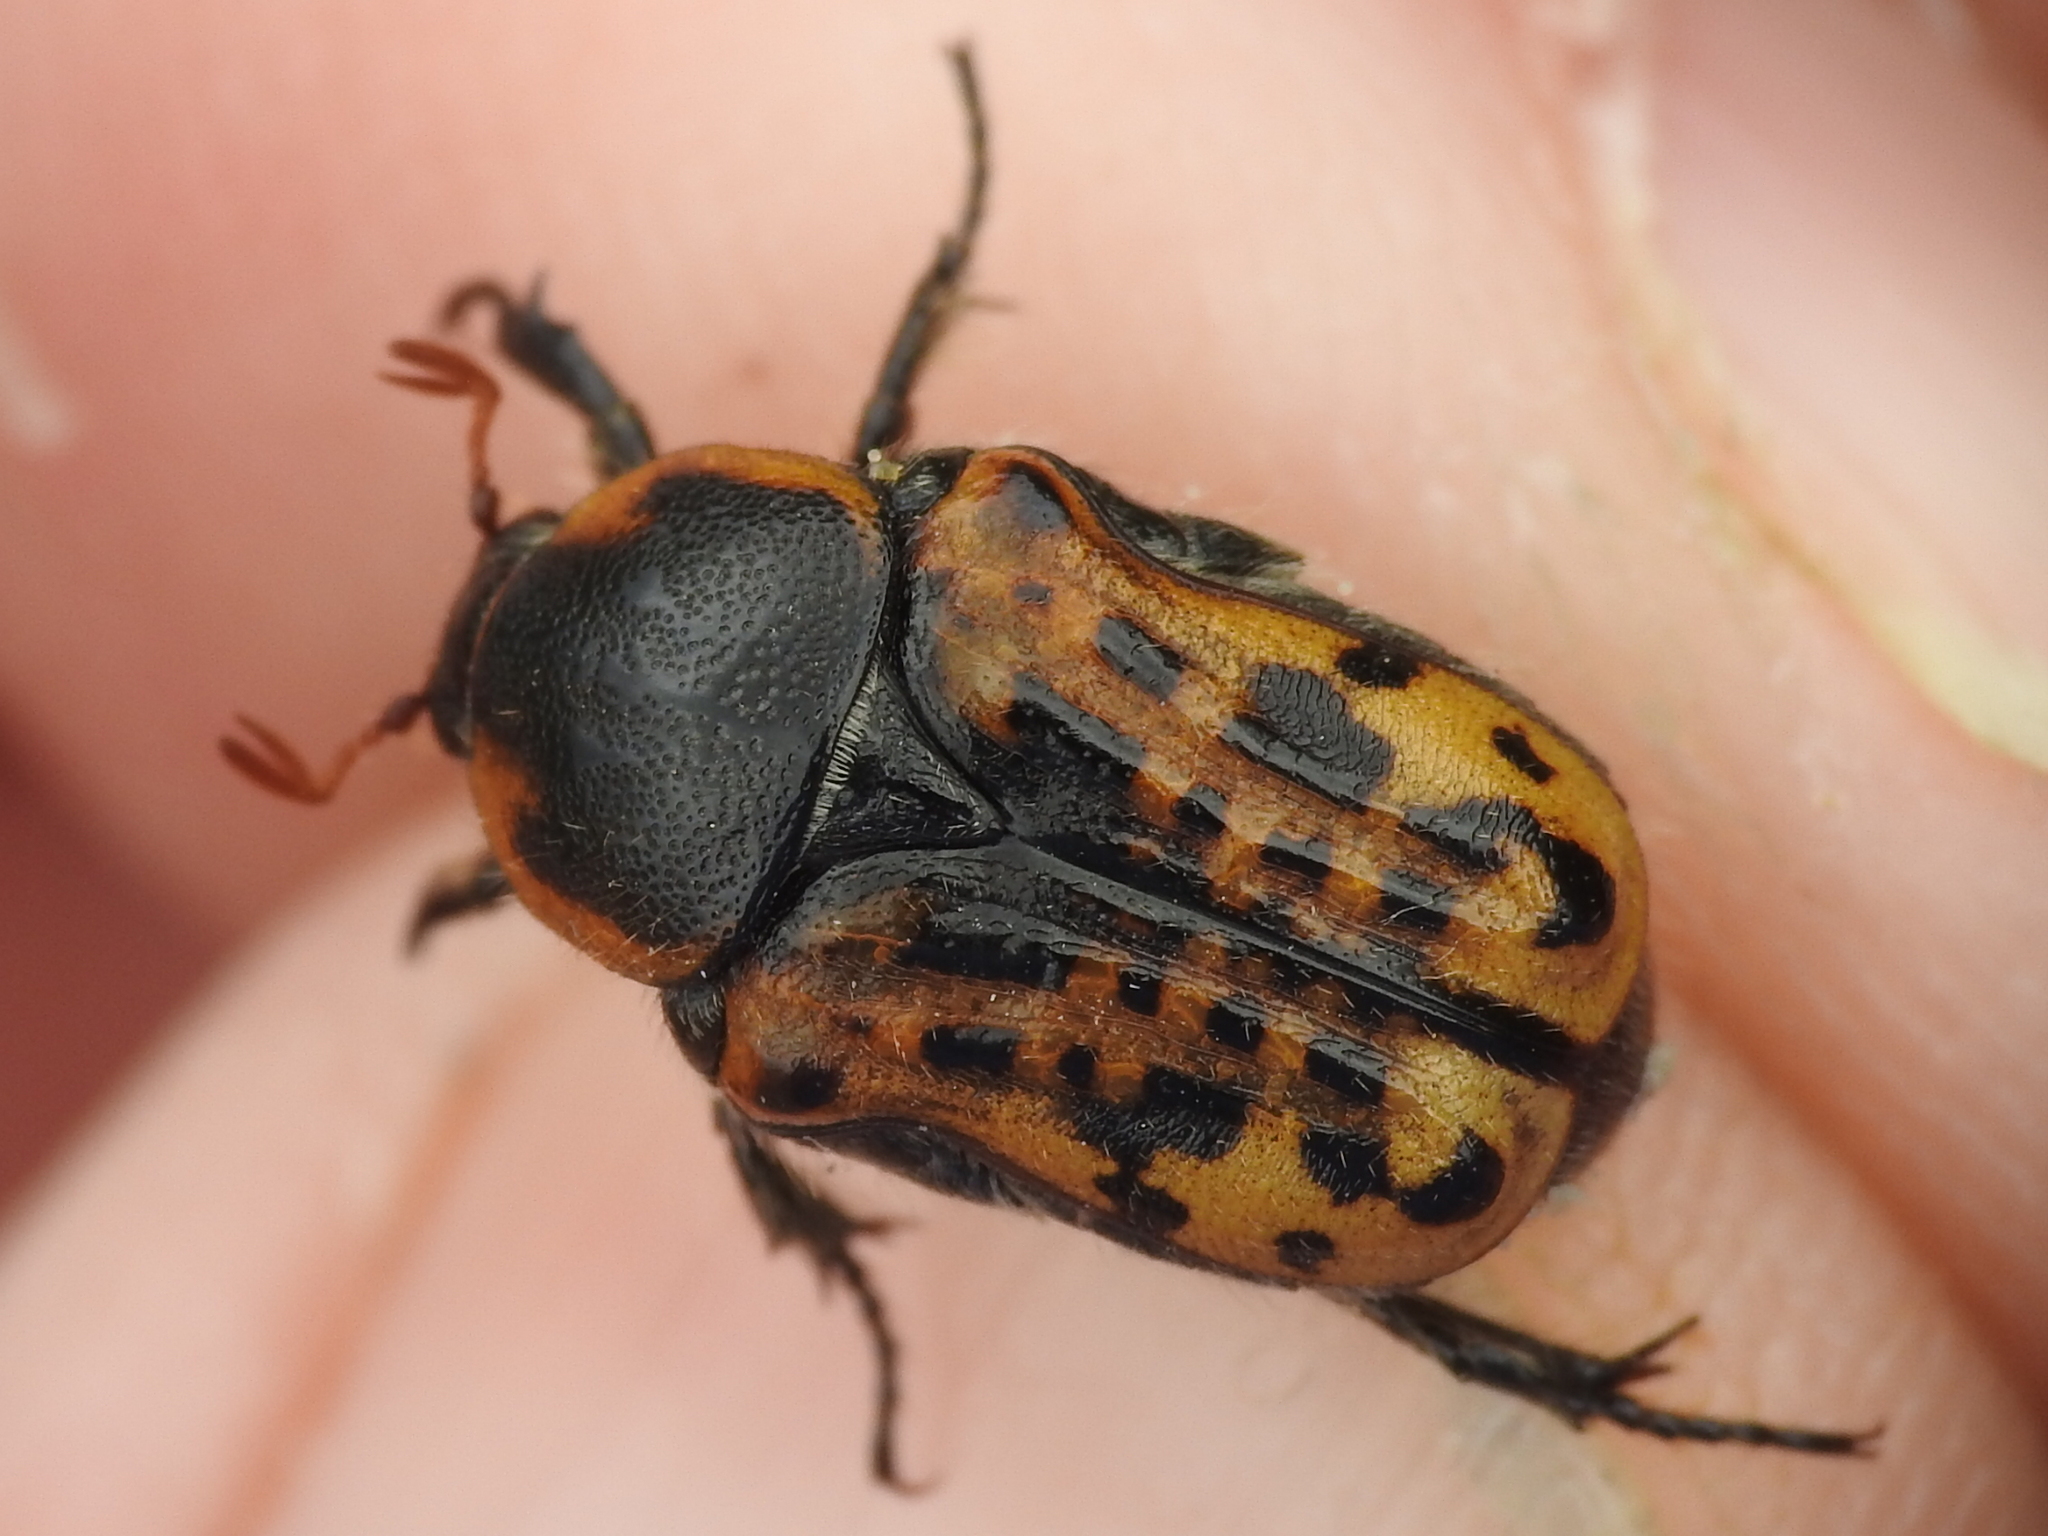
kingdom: Animalia
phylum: Arthropoda
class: Insecta
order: Coleoptera
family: Scarabaeidae
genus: Euphoria
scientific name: Euphoria kernii
